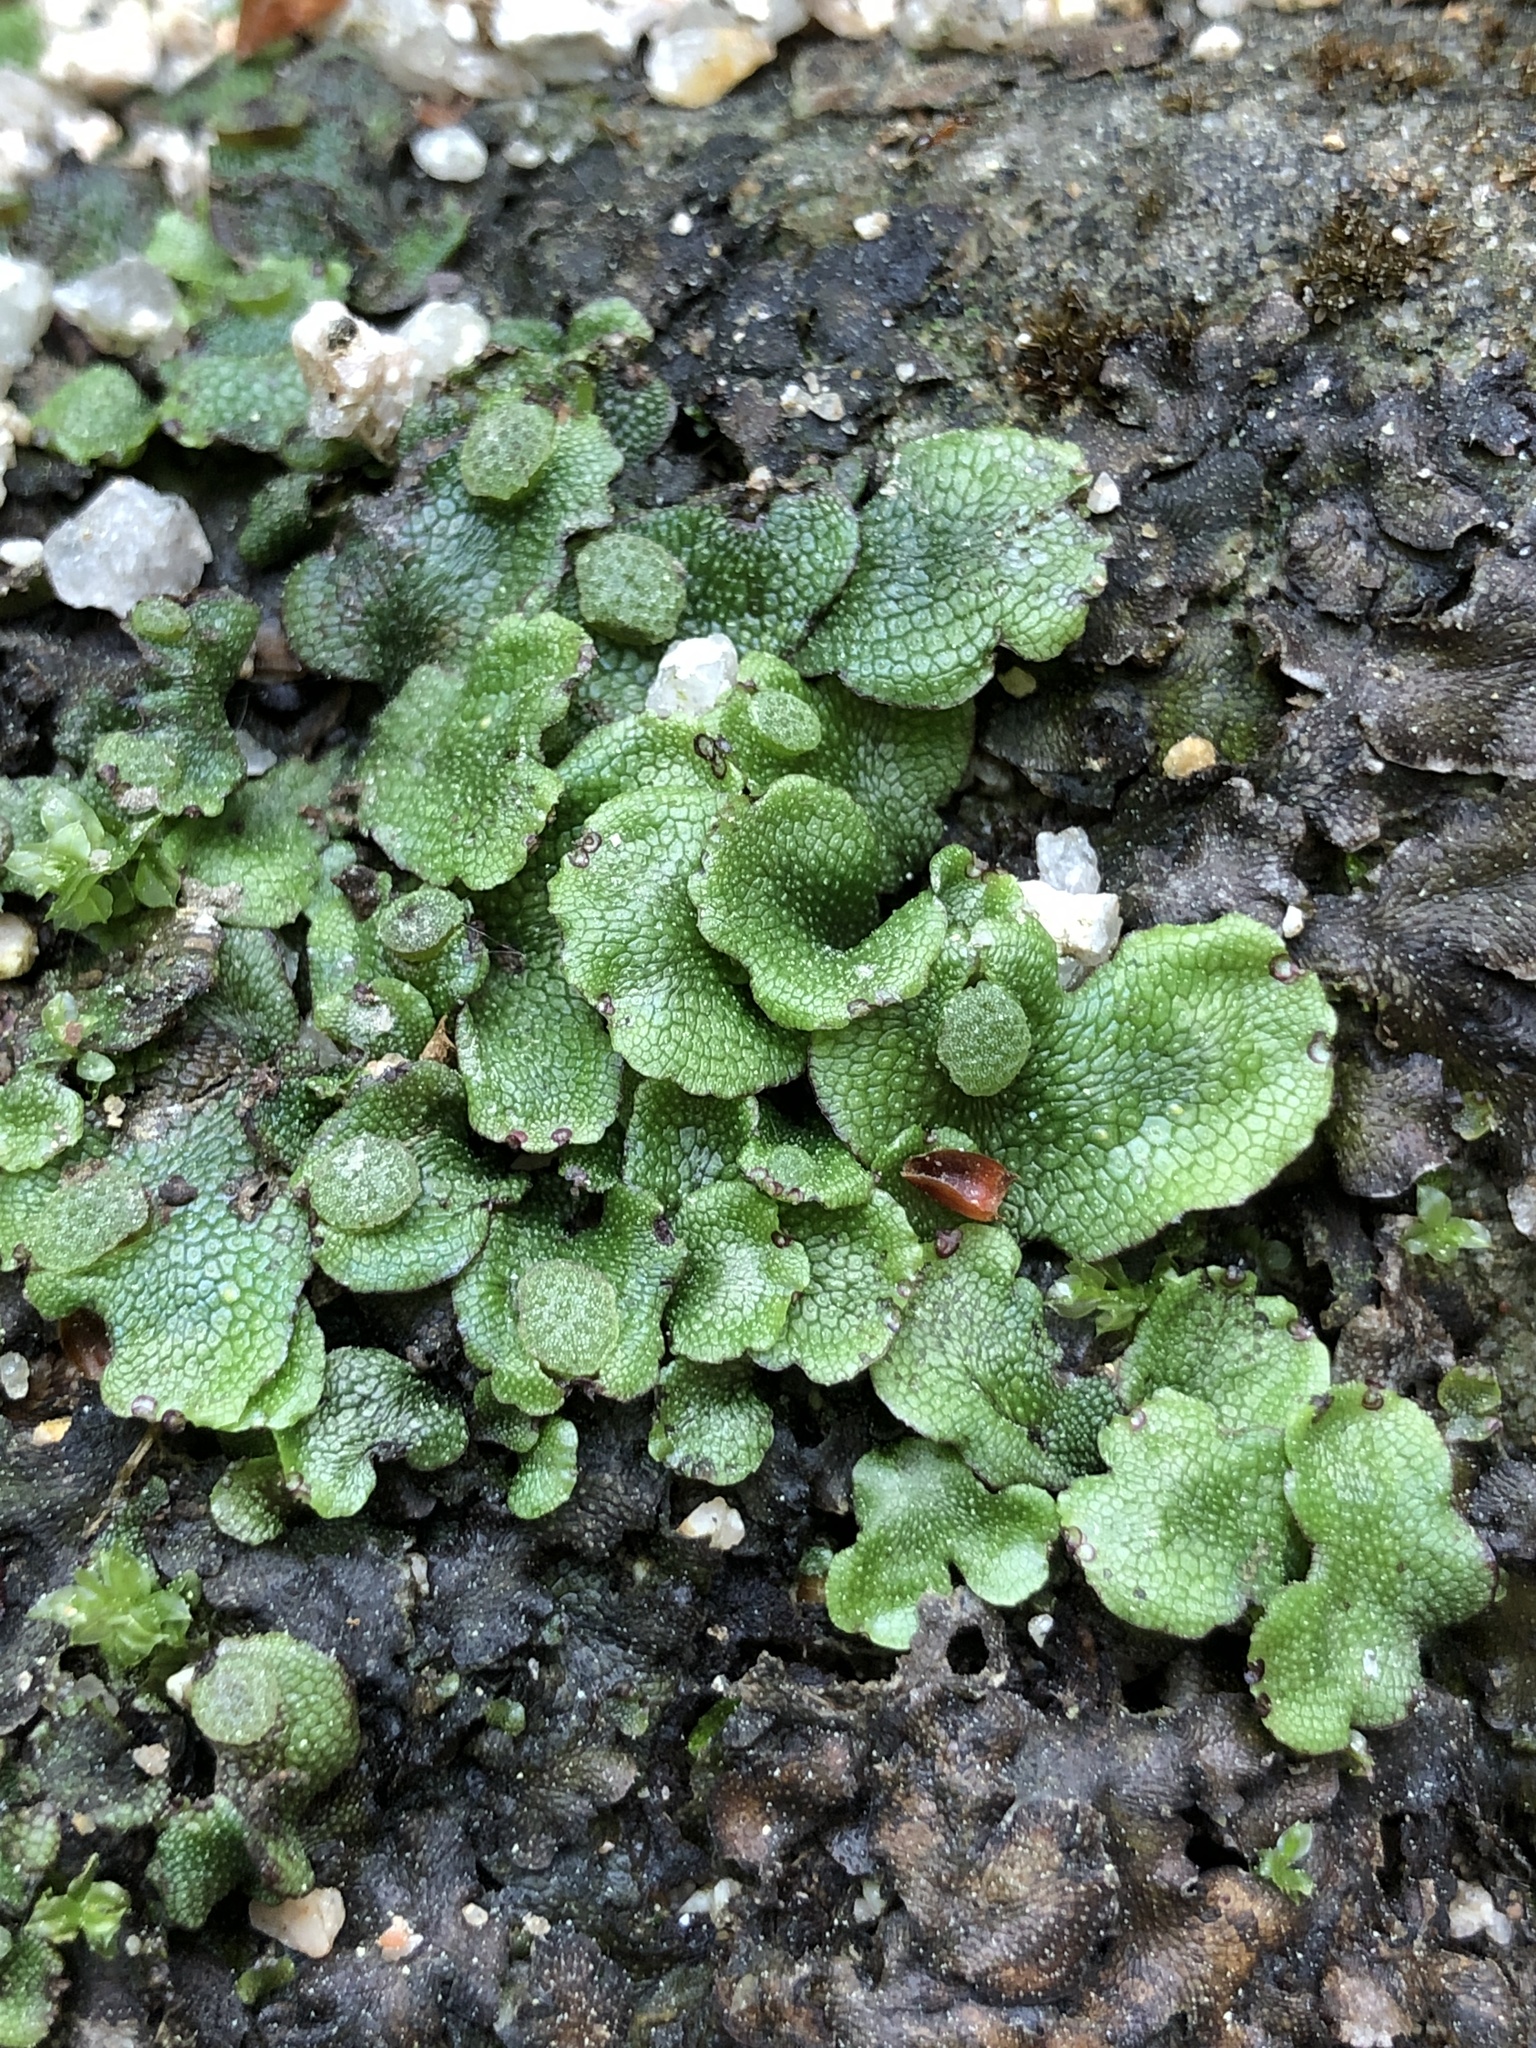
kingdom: Plantae
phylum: Marchantiophyta
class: Marchantiopsida
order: Marchantiales
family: Conocephalaceae
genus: Conocephalum
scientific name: Conocephalum salebrosum
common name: Cat-tongue liverwort
